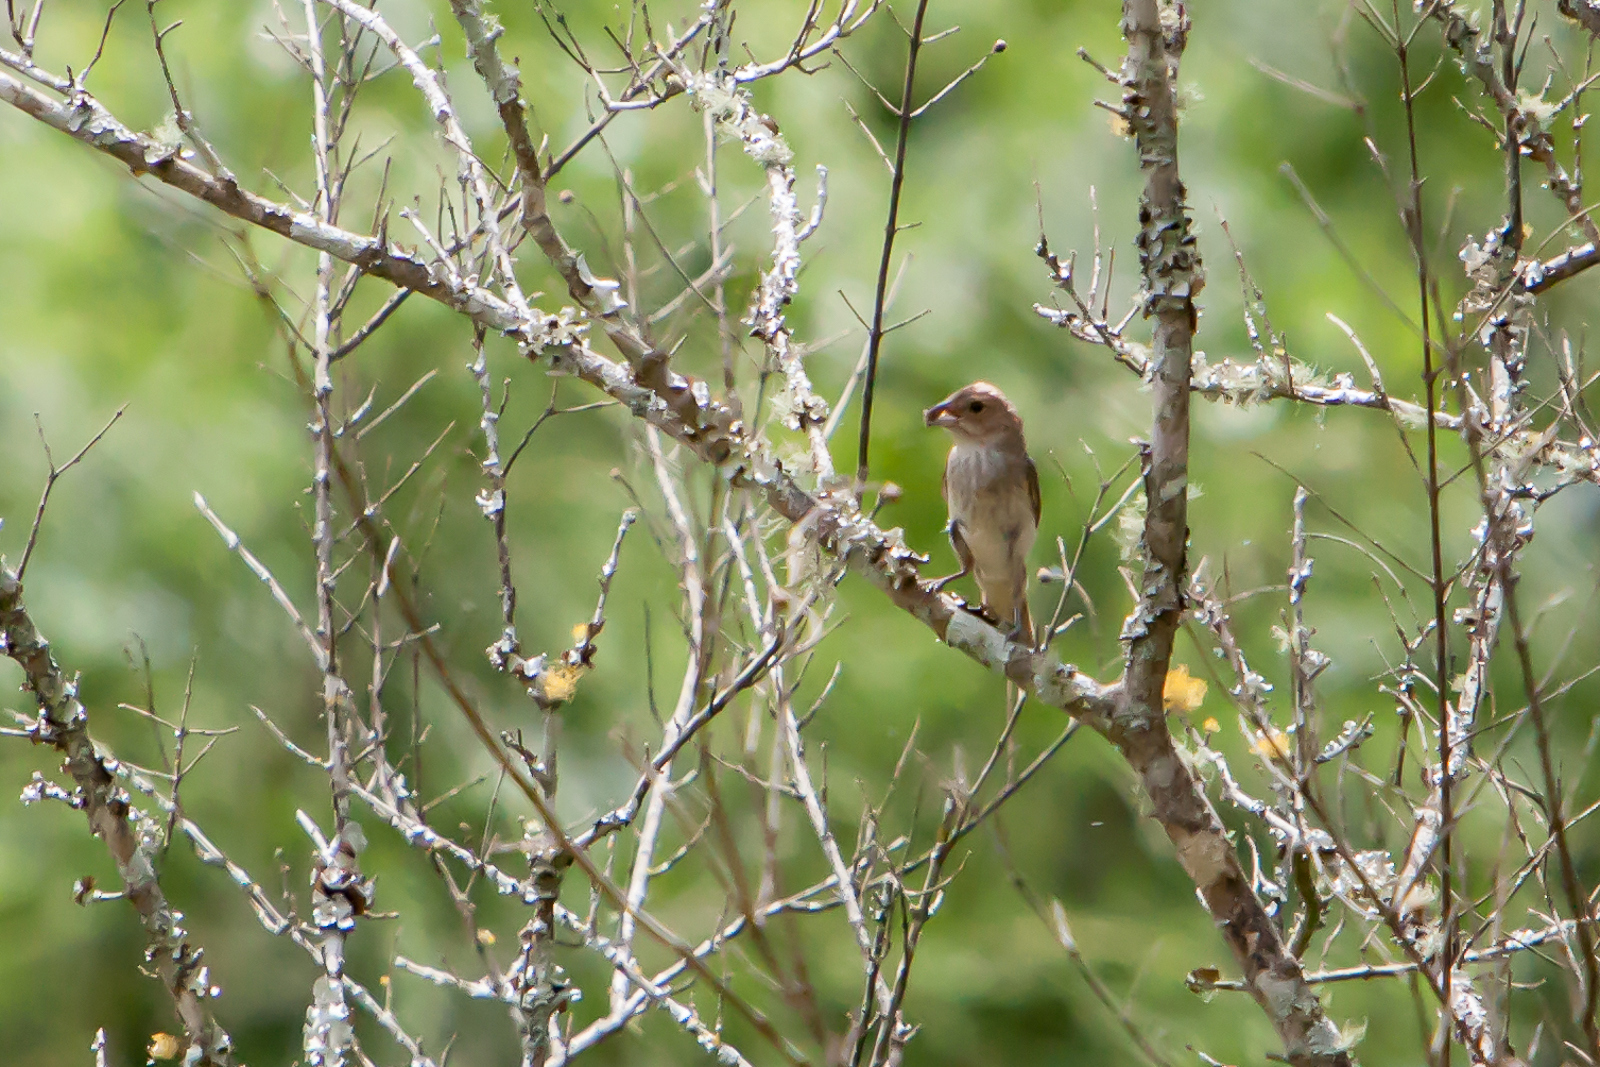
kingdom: Animalia
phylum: Chordata
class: Aves
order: Passeriformes
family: Cardinalidae
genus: Passerina
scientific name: Passerina cyanea
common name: Indigo bunting
